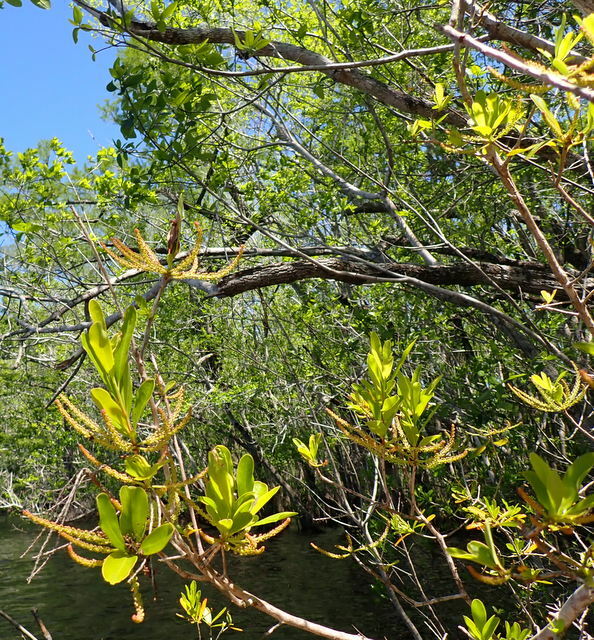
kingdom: Plantae
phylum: Tracheophyta
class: Magnoliopsida
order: Ericales
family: Cyrillaceae
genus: Cyrilla
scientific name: Cyrilla racemiflora
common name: Black titi
